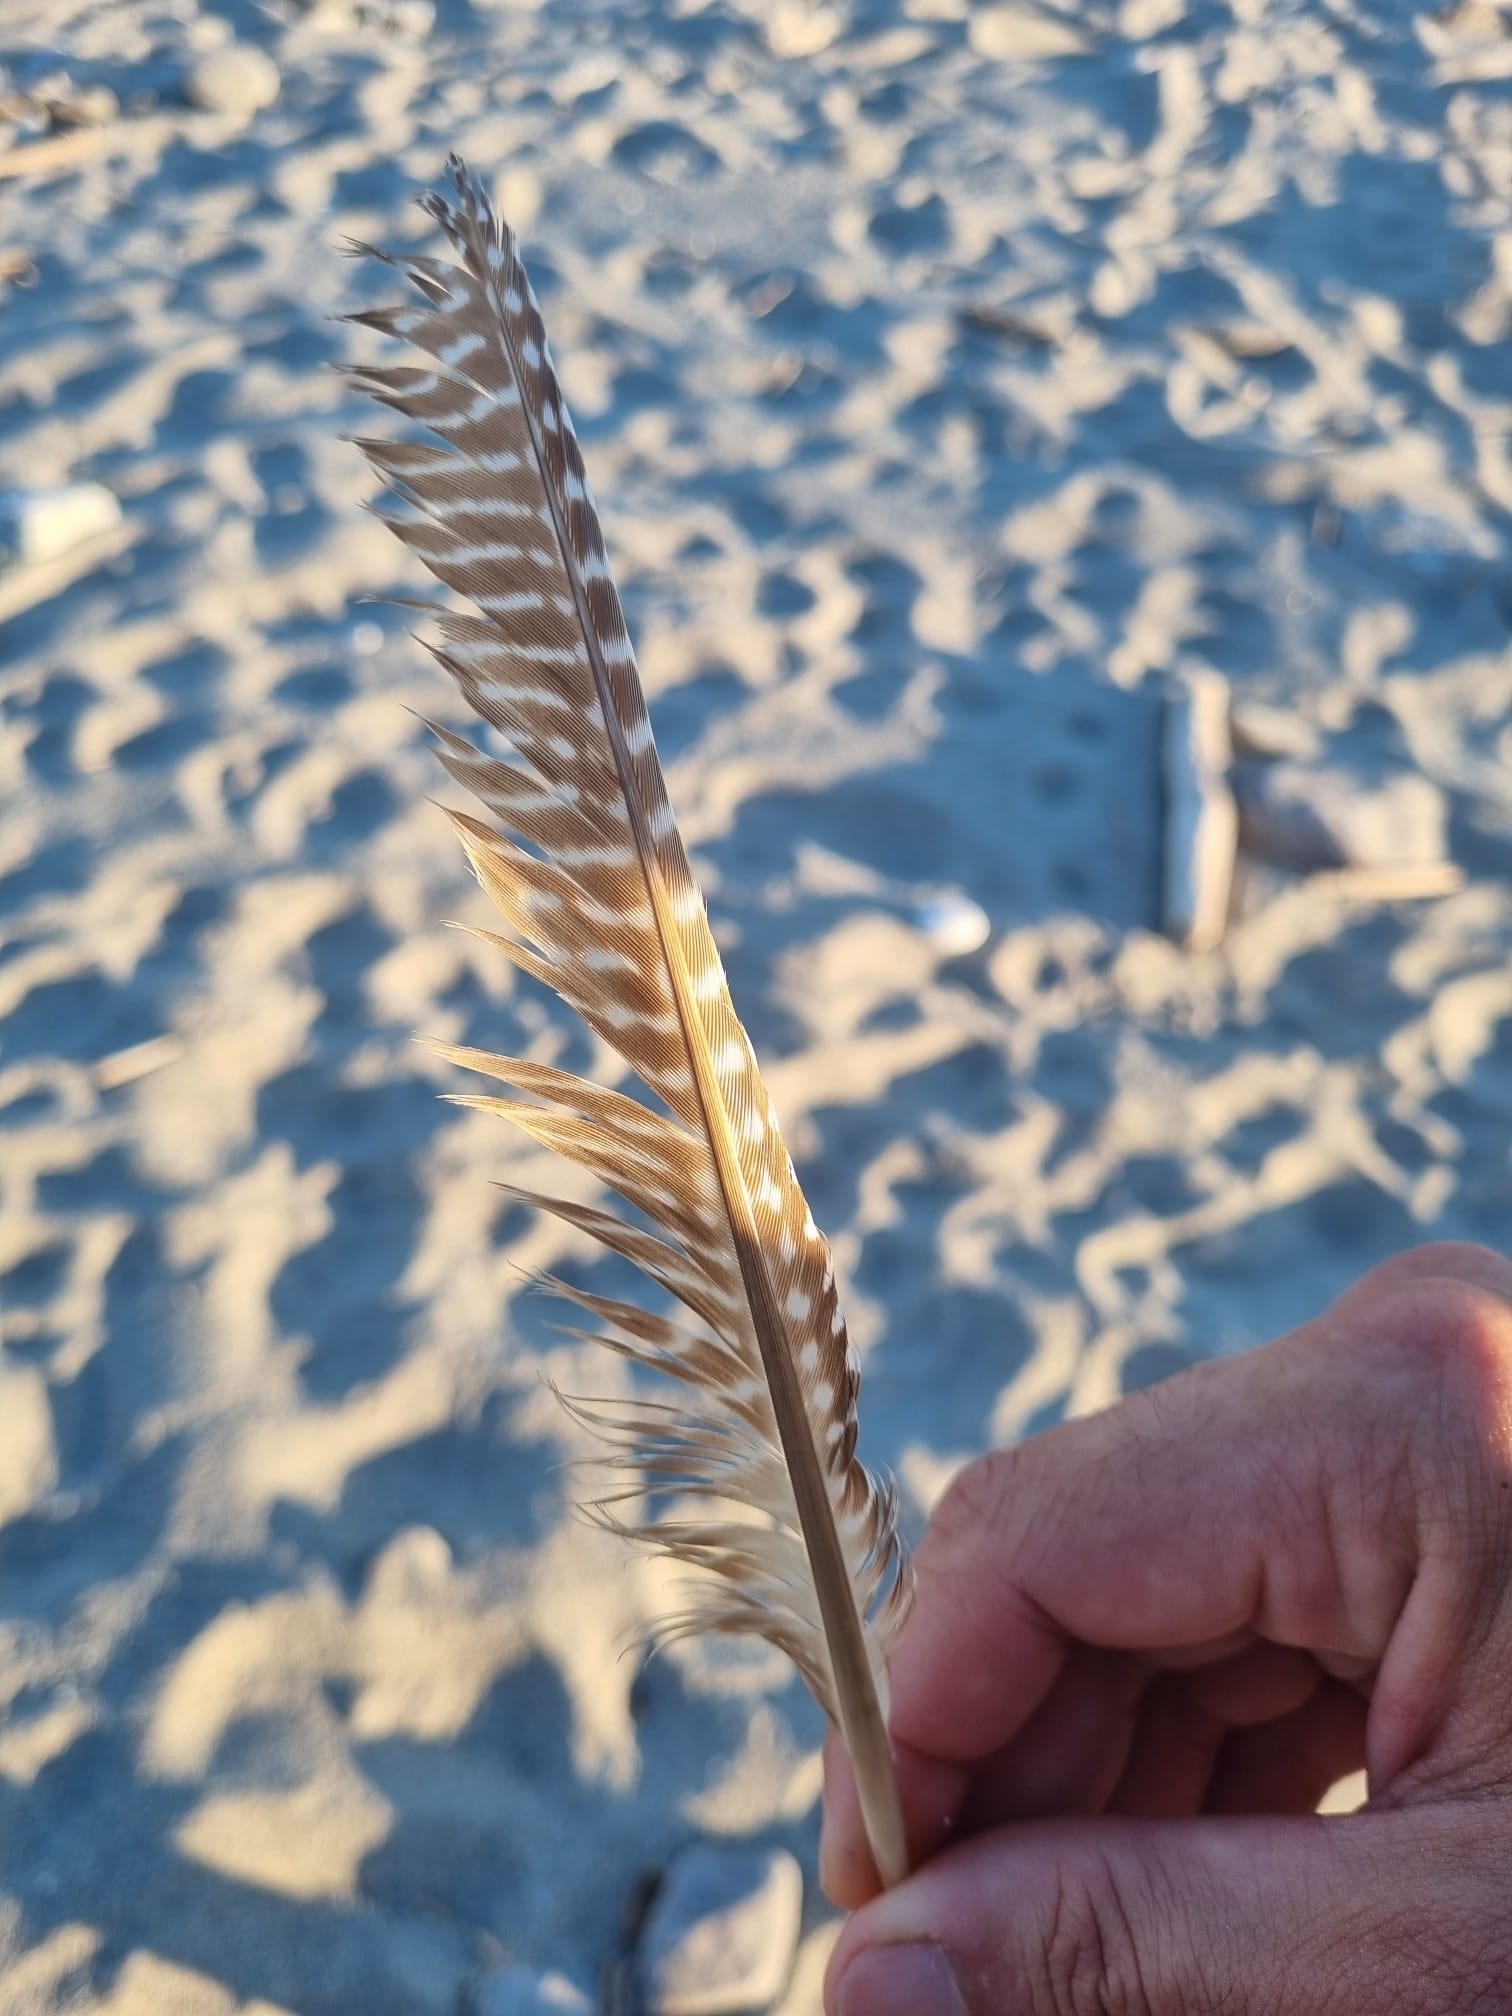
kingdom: Animalia
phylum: Chordata
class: Aves
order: Galliformes
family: Numididae
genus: Numida
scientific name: Numida meleagris
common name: Helmeted guineafowl
